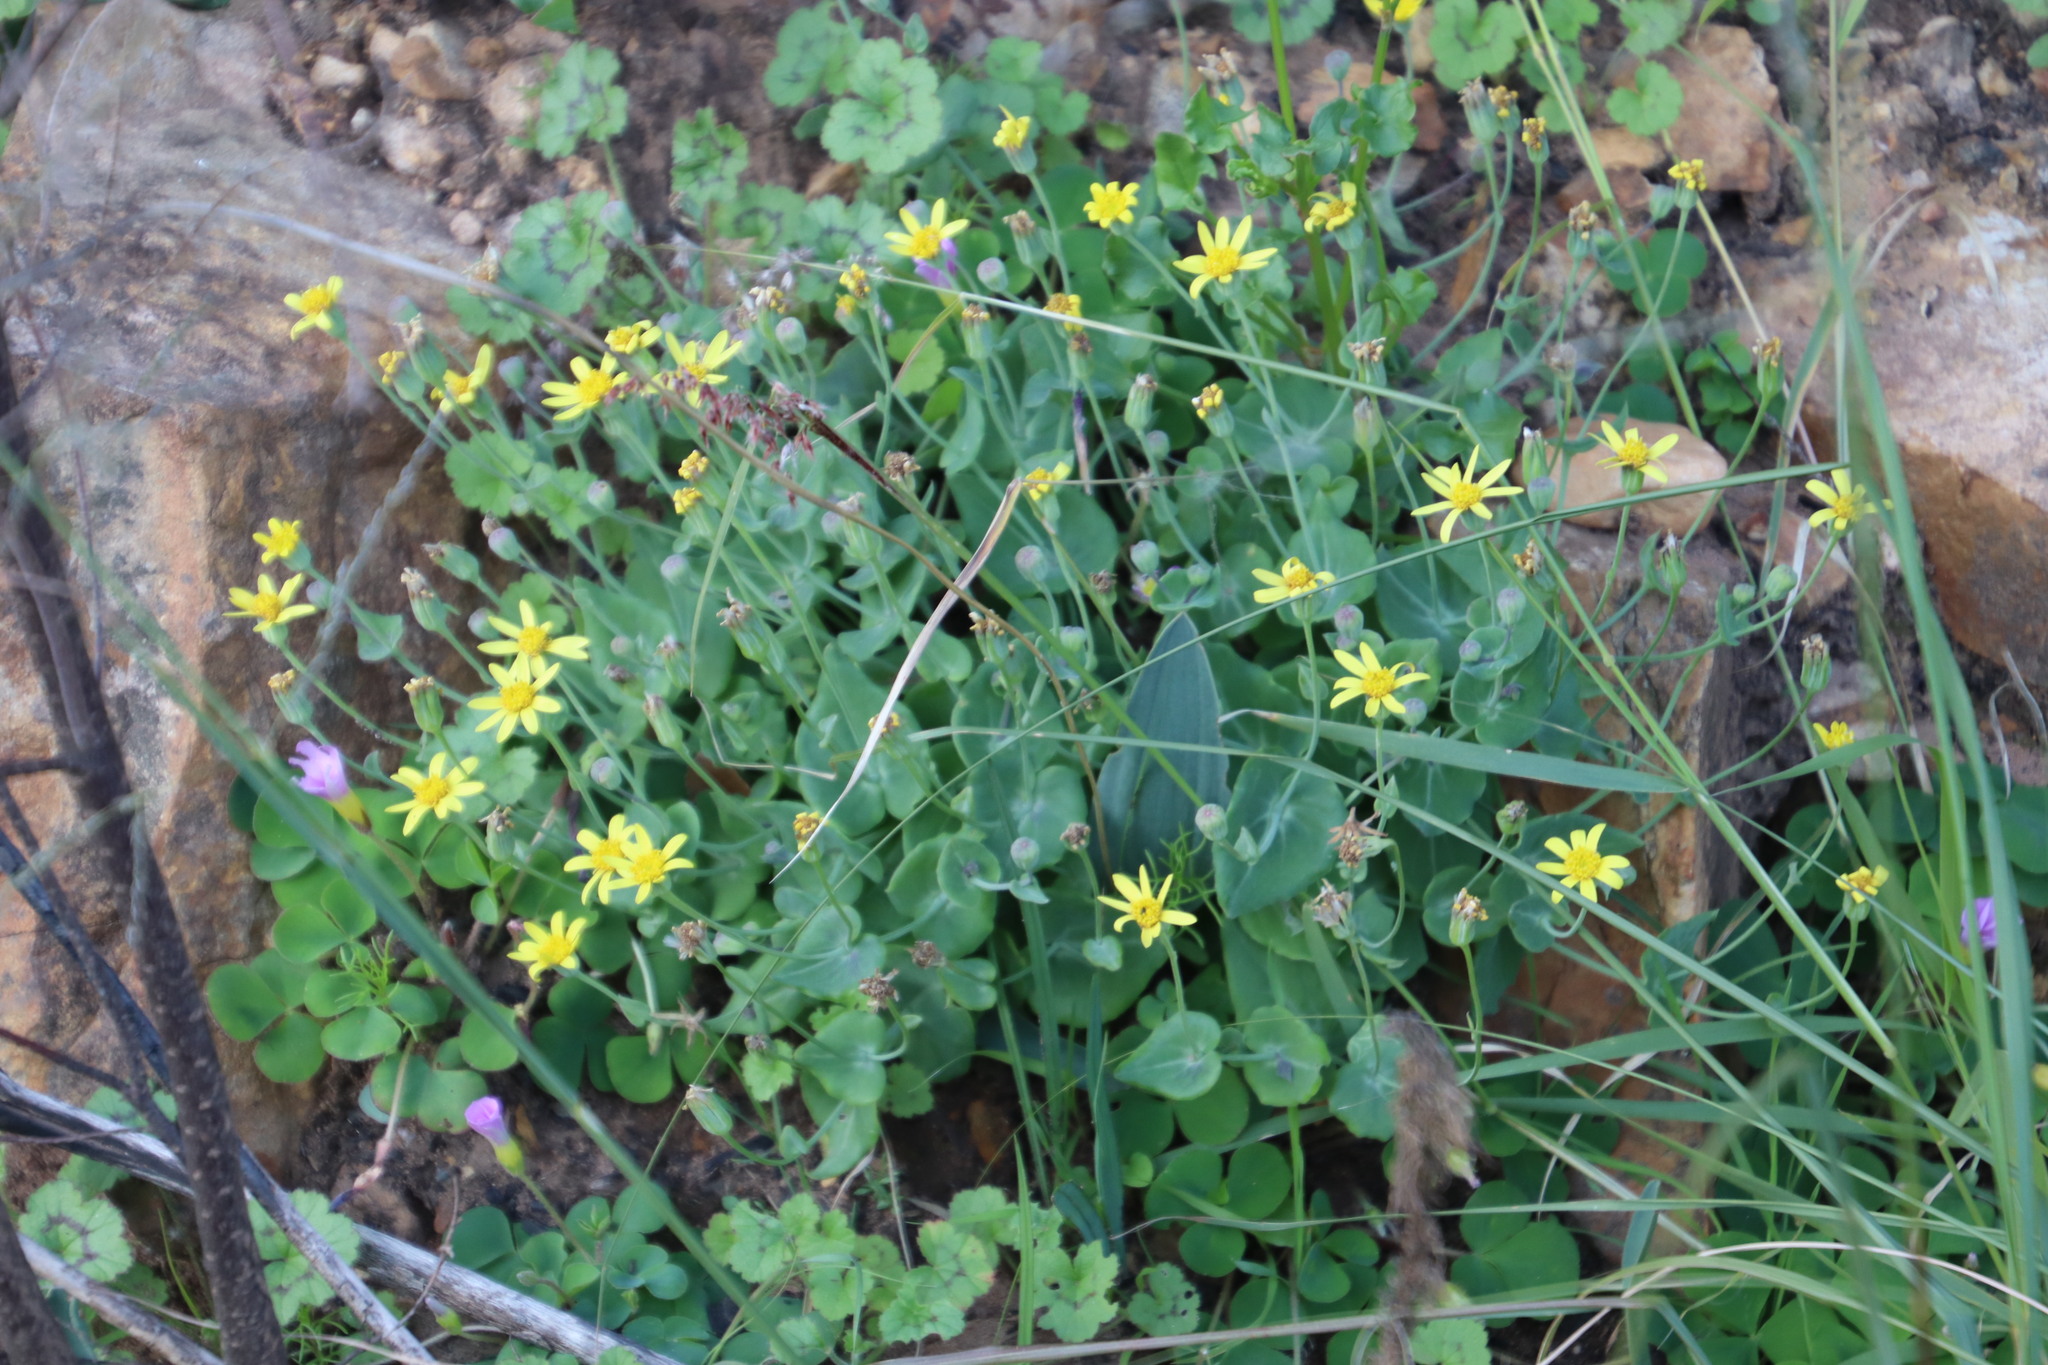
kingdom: Plantae
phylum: Tracheophyta
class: Magnoliopsida
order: Asterales
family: Asteraceae
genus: Othonna
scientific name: Othonna perfoliata
